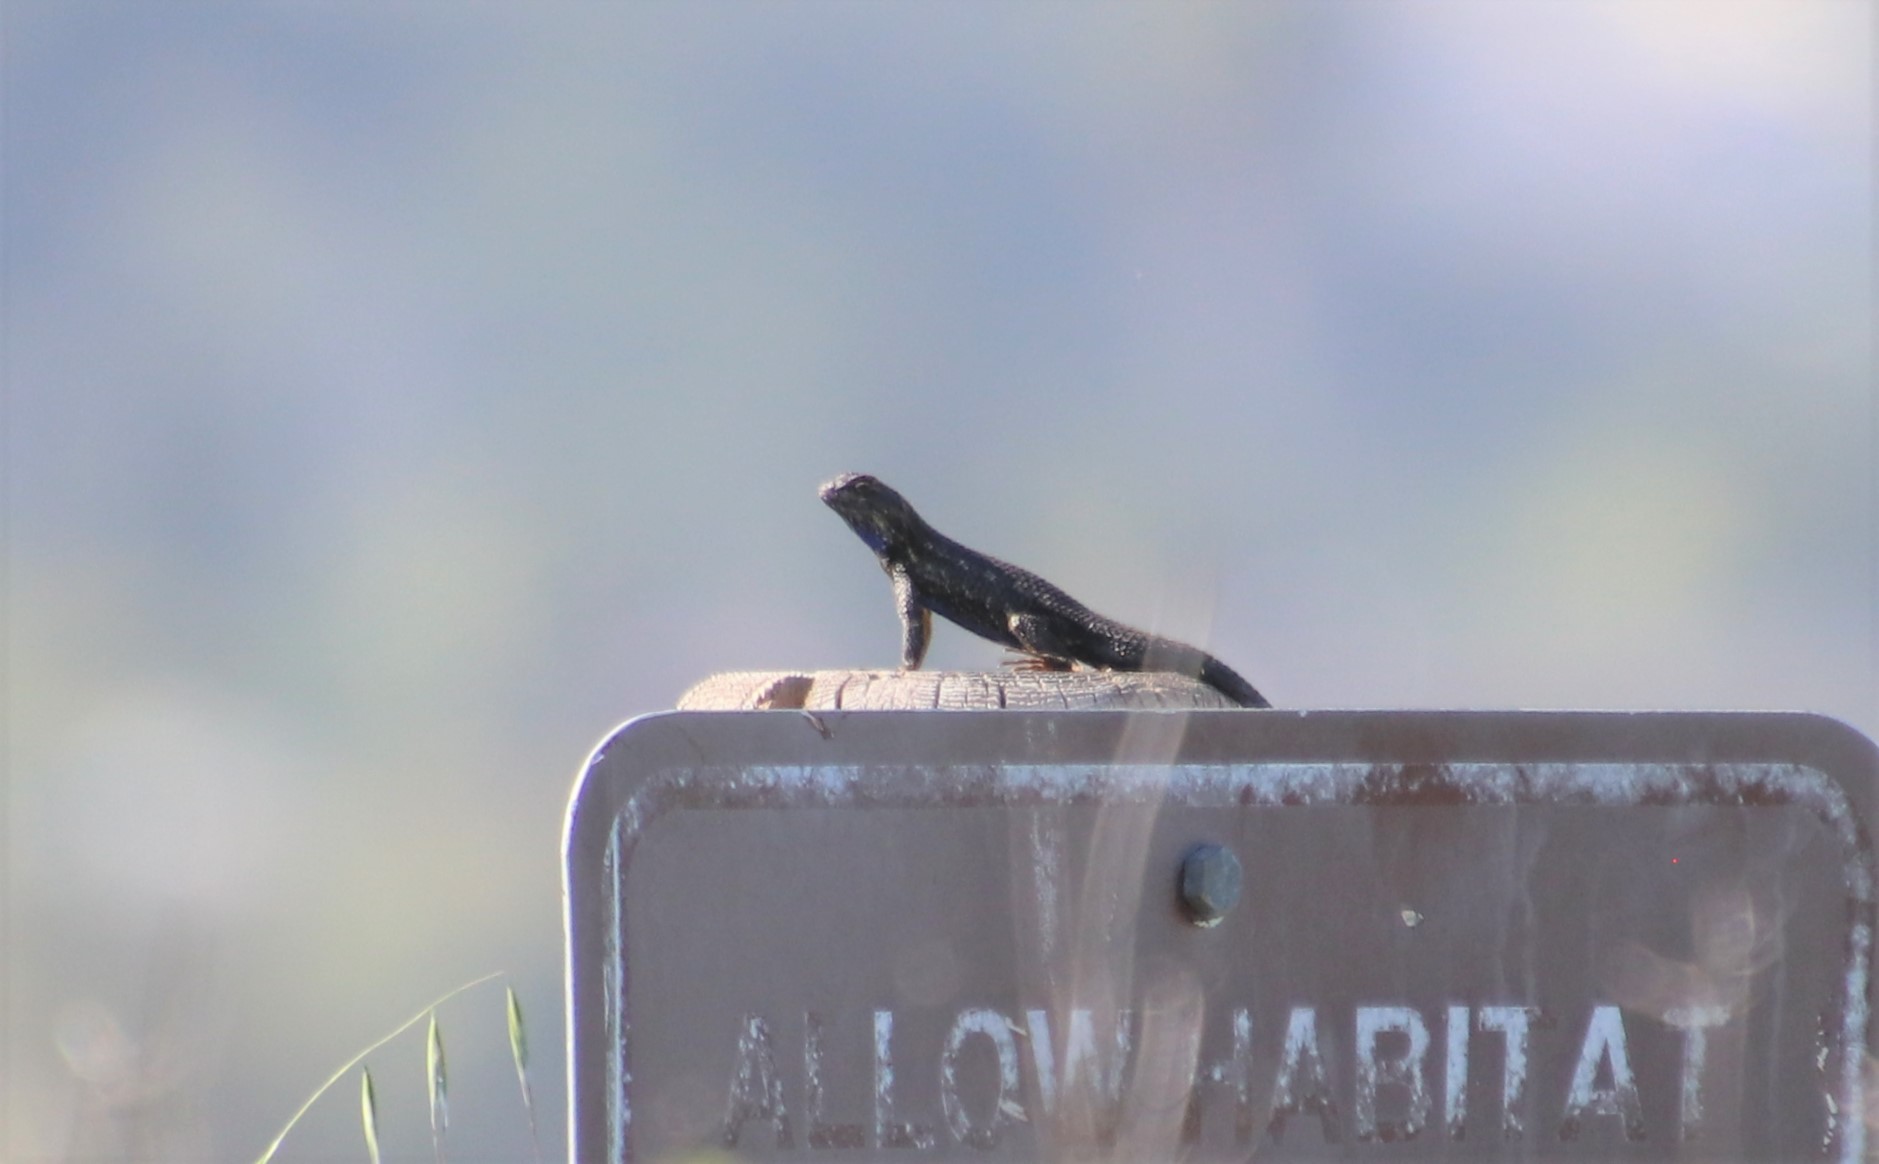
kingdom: Animalia
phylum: Chordata
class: Squamata
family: Phrynosomatidae
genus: Sceloporus
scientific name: Sceloporus occidentalis
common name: Western fence lizard
